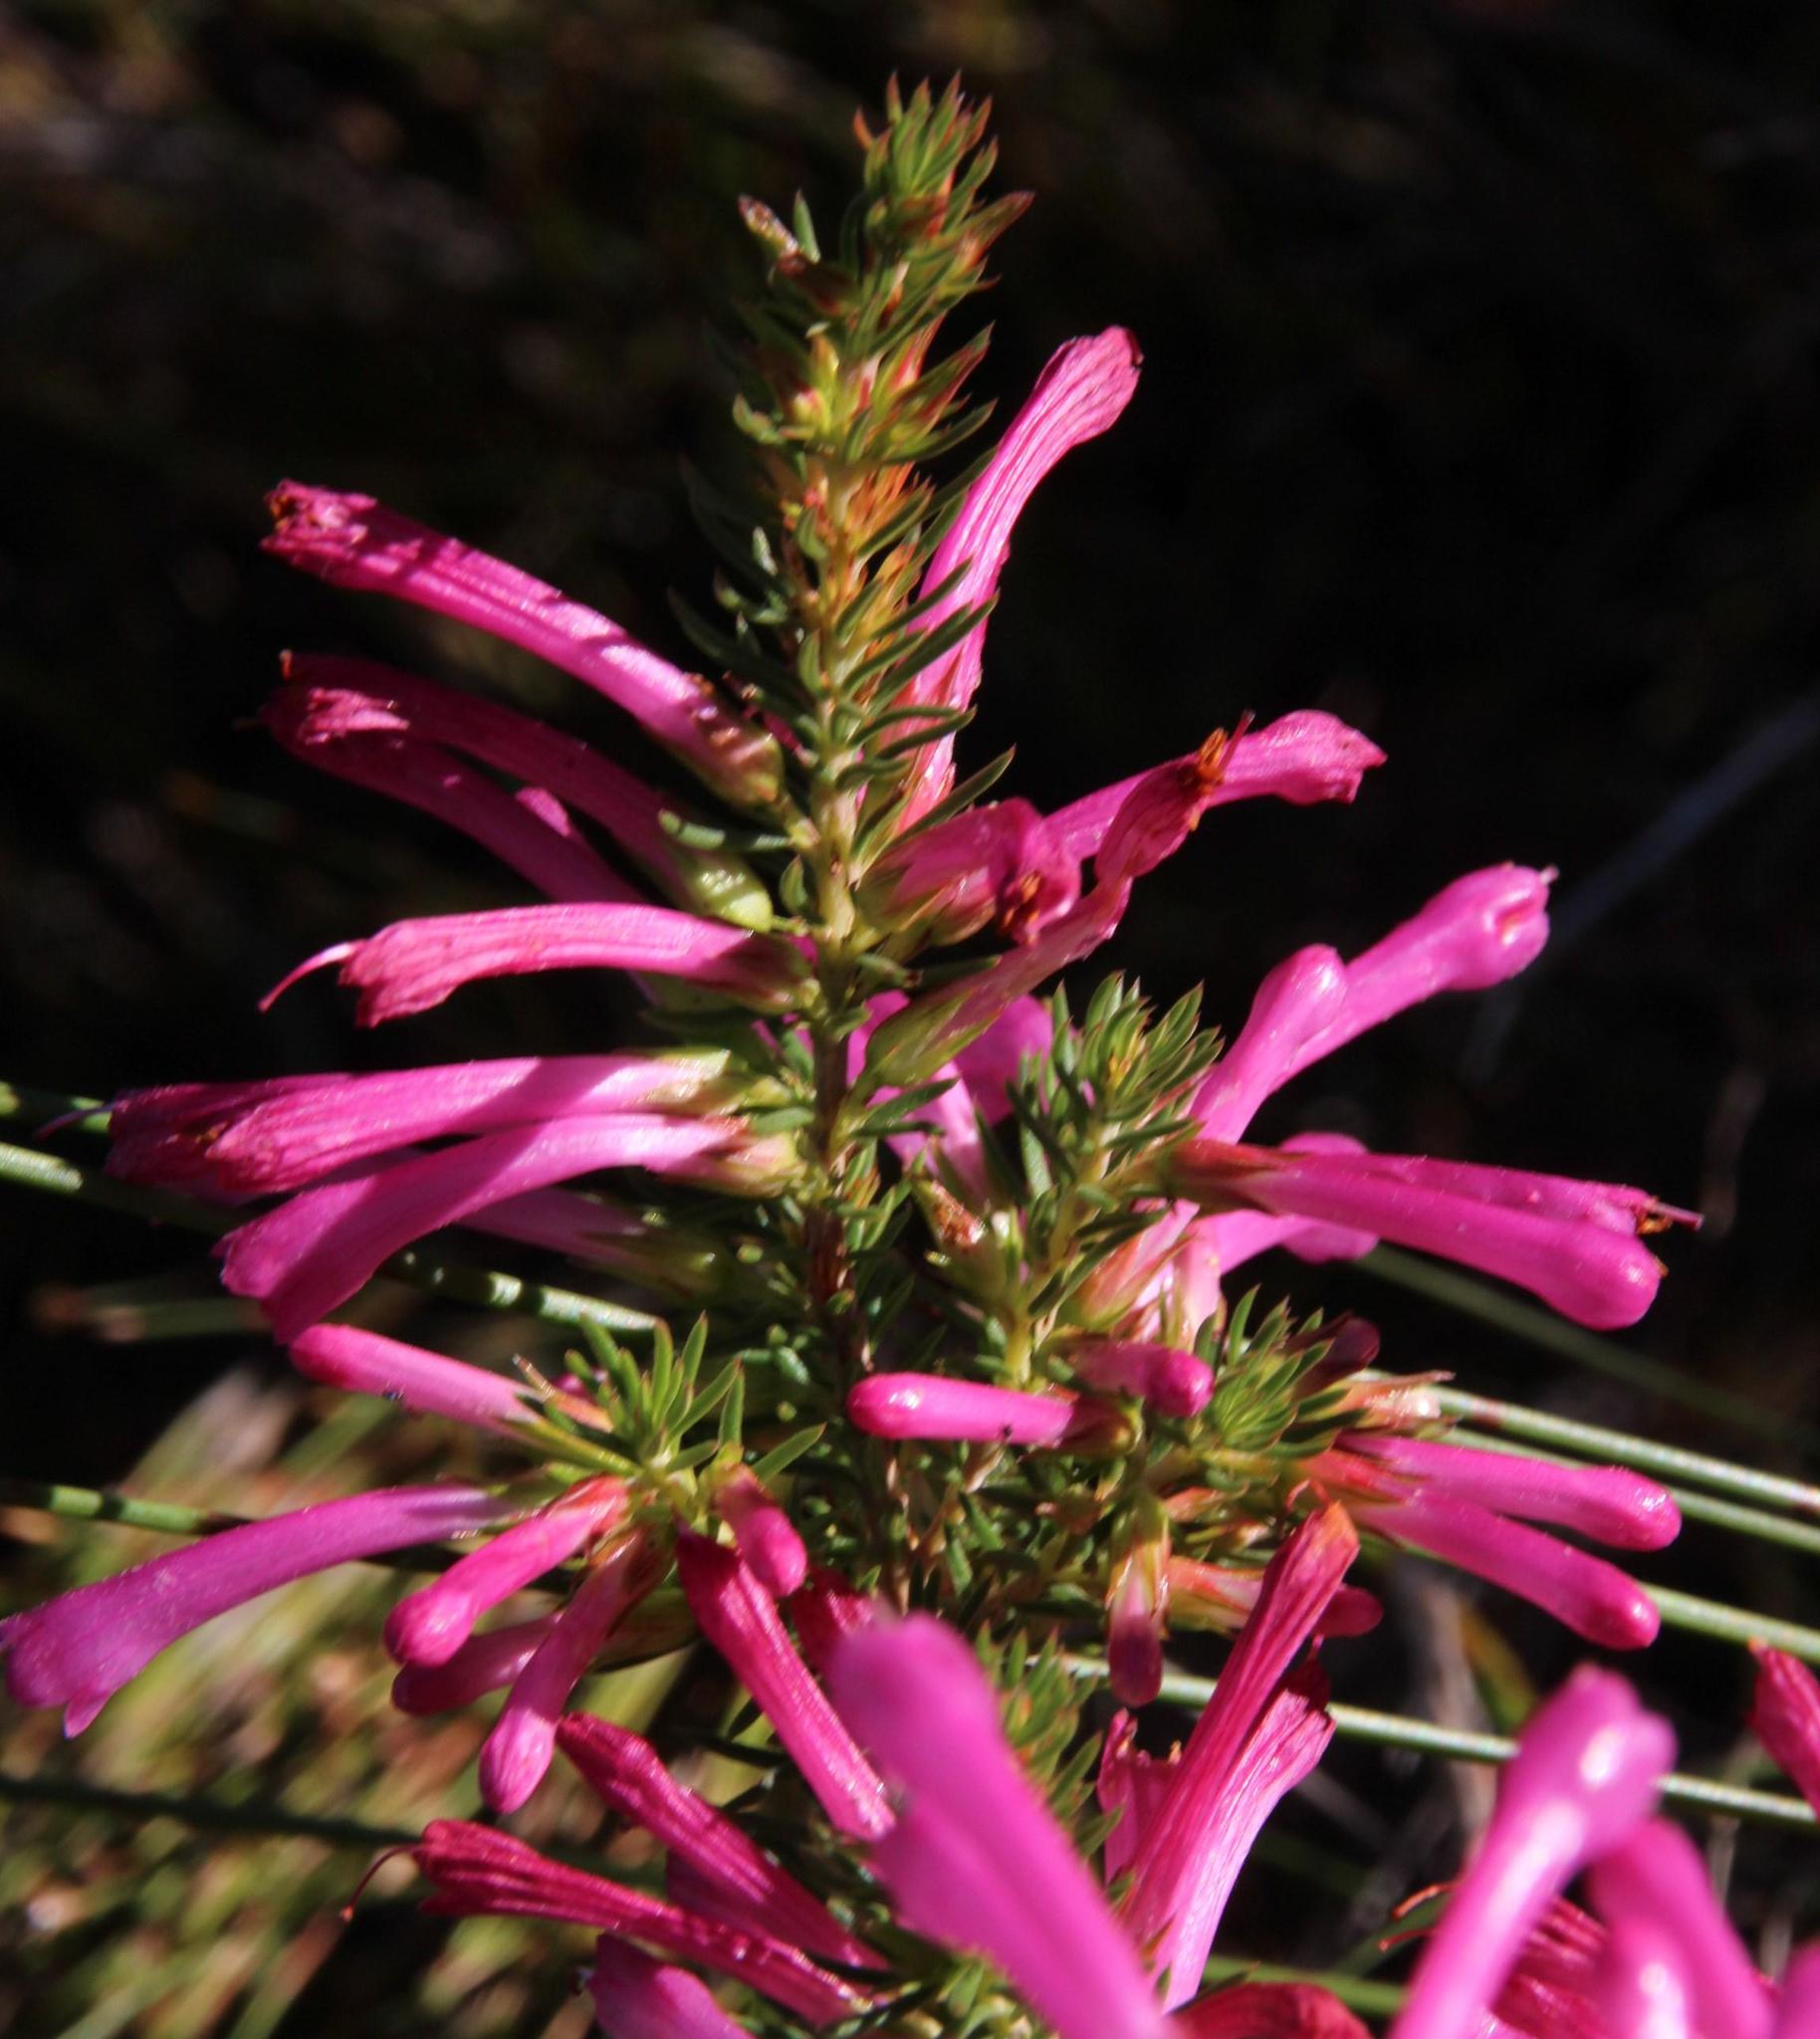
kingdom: Plantae
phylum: Tracheophyta
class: Magnoliopsida
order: Ericales
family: Ericaceae
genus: Erica
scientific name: Erica abietina
